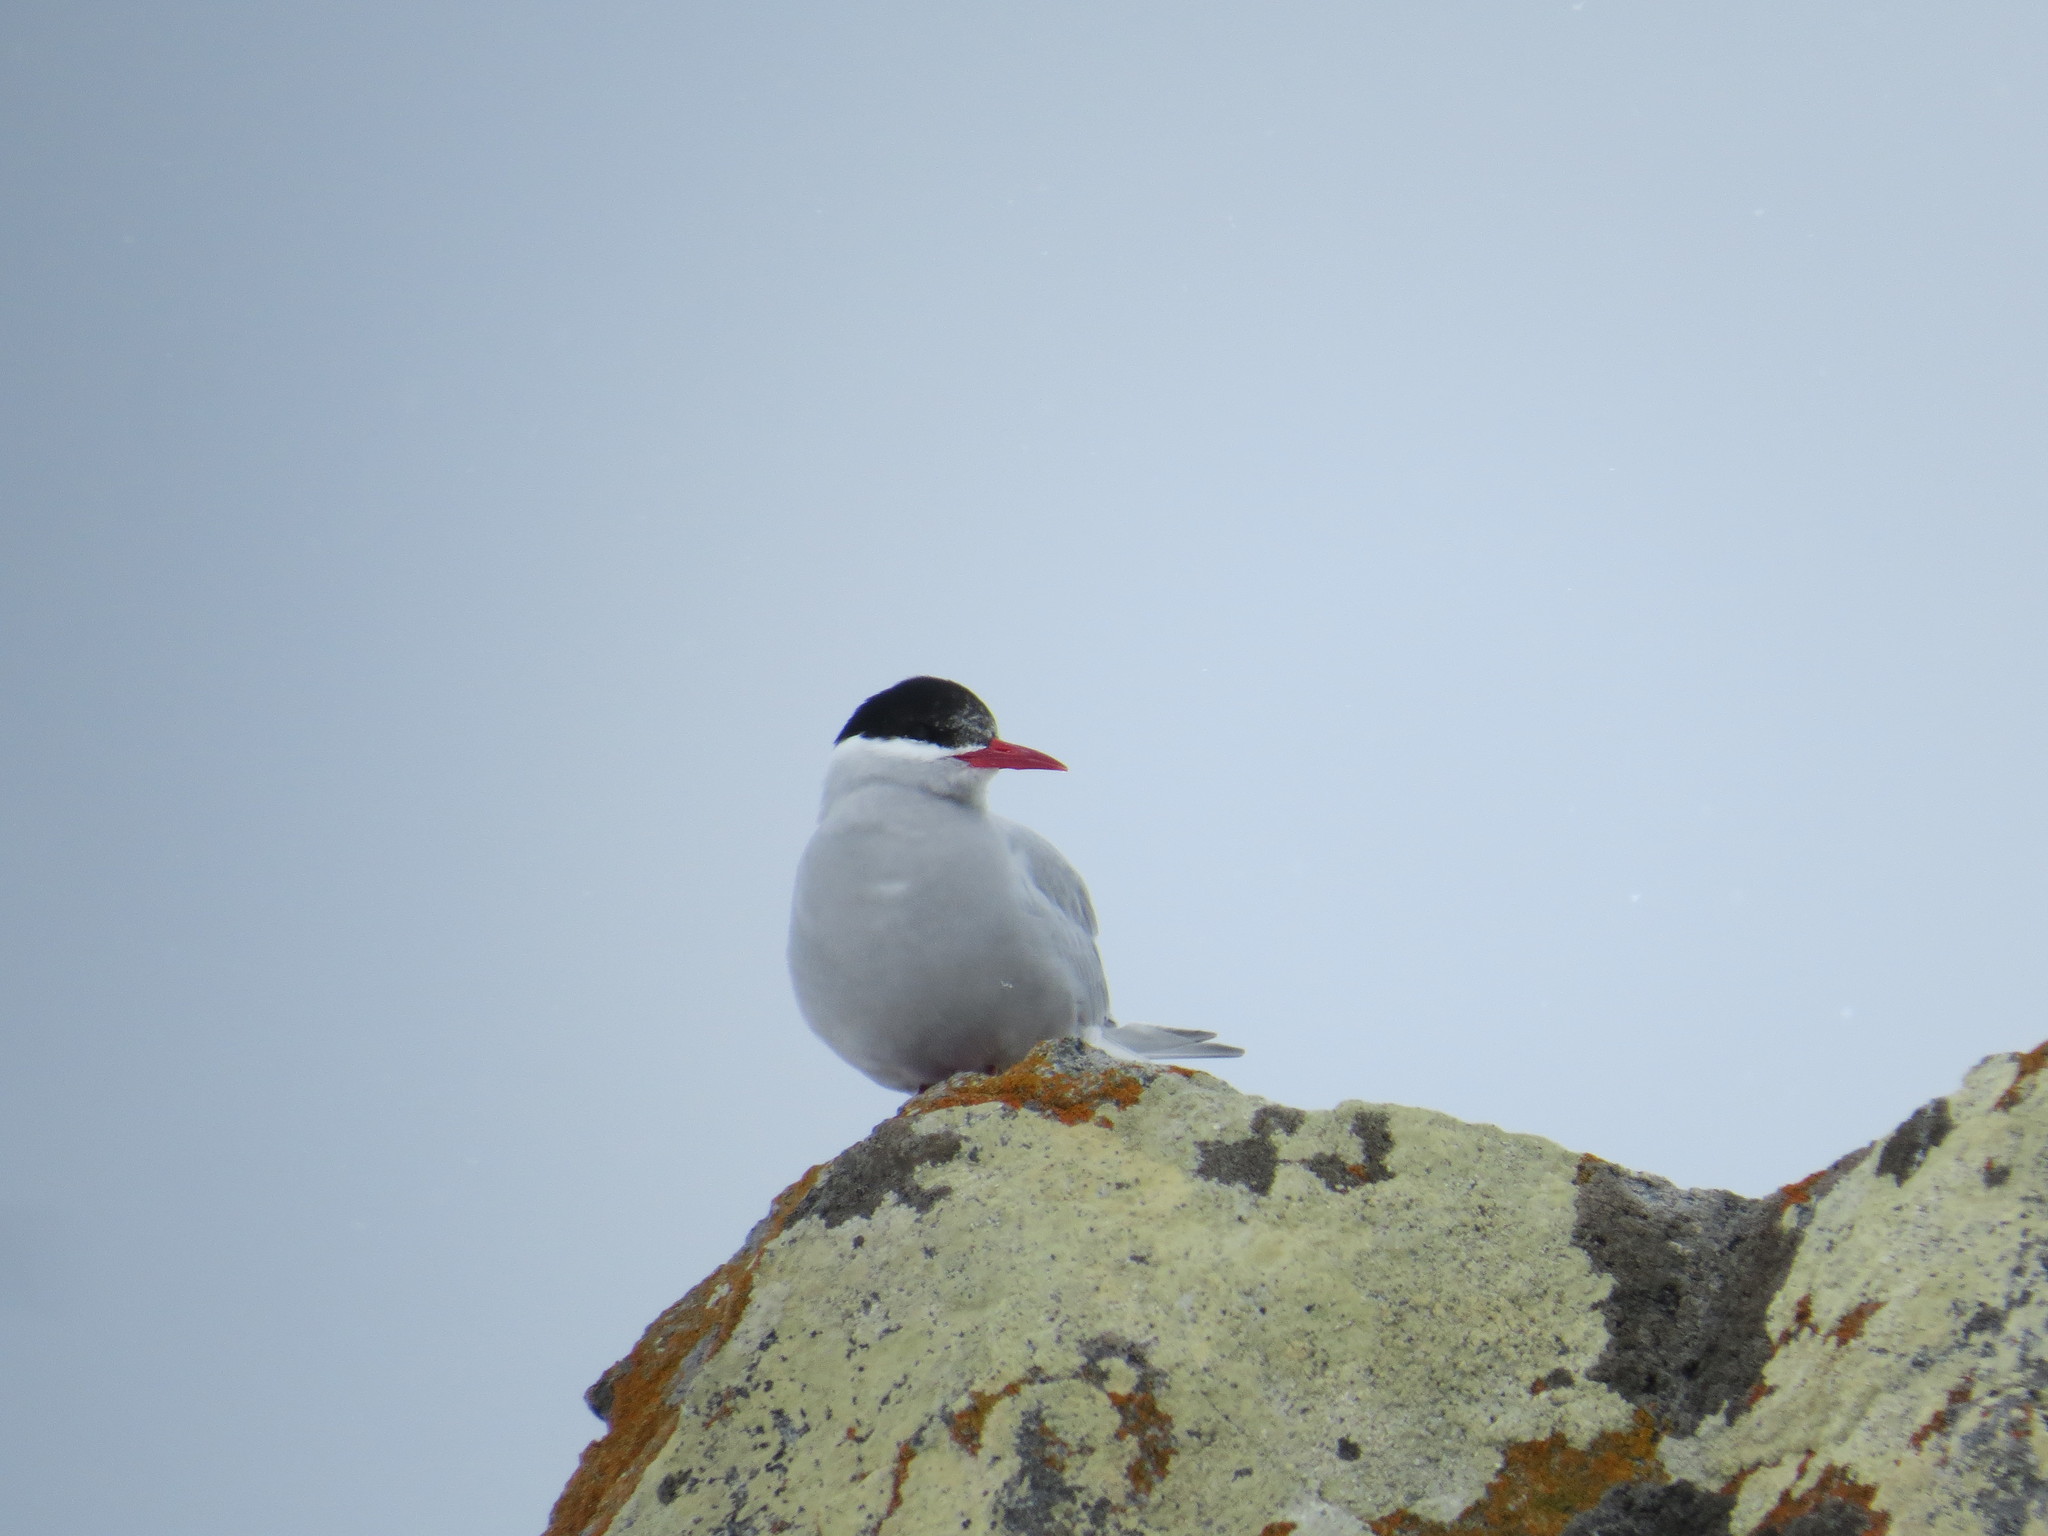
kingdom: Animalia
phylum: Chordata
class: Aves
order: Charadriiformes
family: Laridae
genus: Sterna
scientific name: Sterna vittata
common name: Antarctic tern
